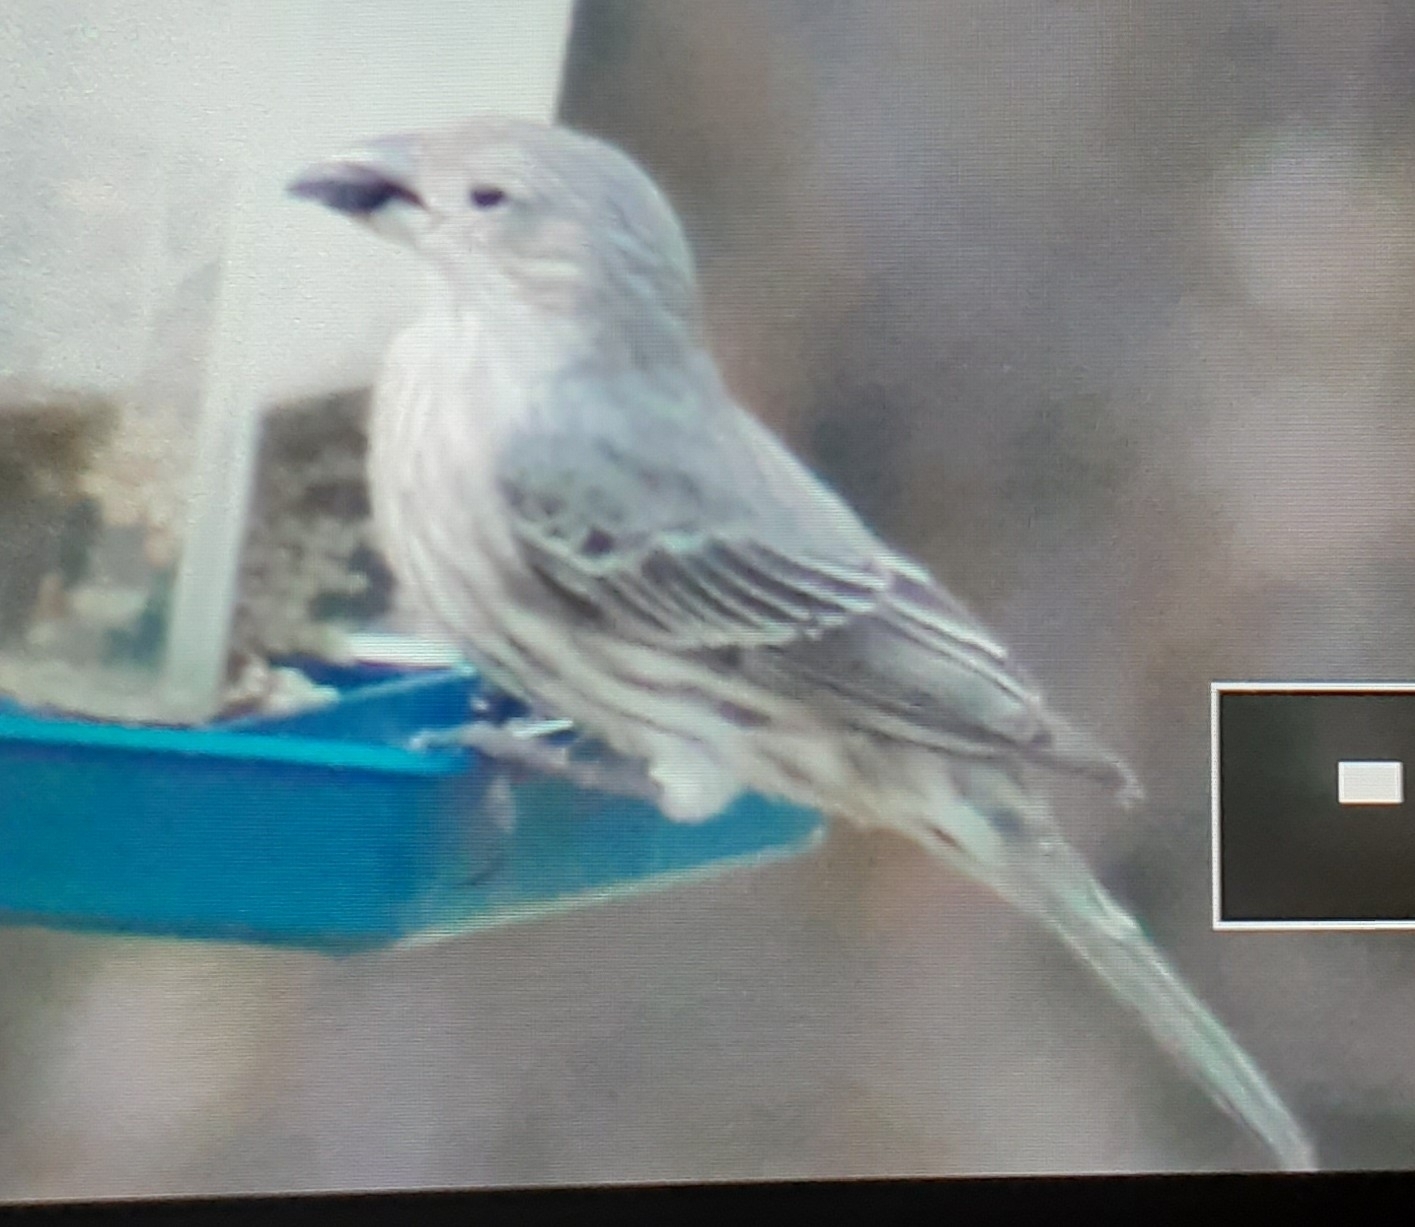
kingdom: Animalia
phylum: Chordata
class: Aves
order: Passeriformes
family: Fringillidae
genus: Haemorhous
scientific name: Haemorhous mexicanus
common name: House finch
